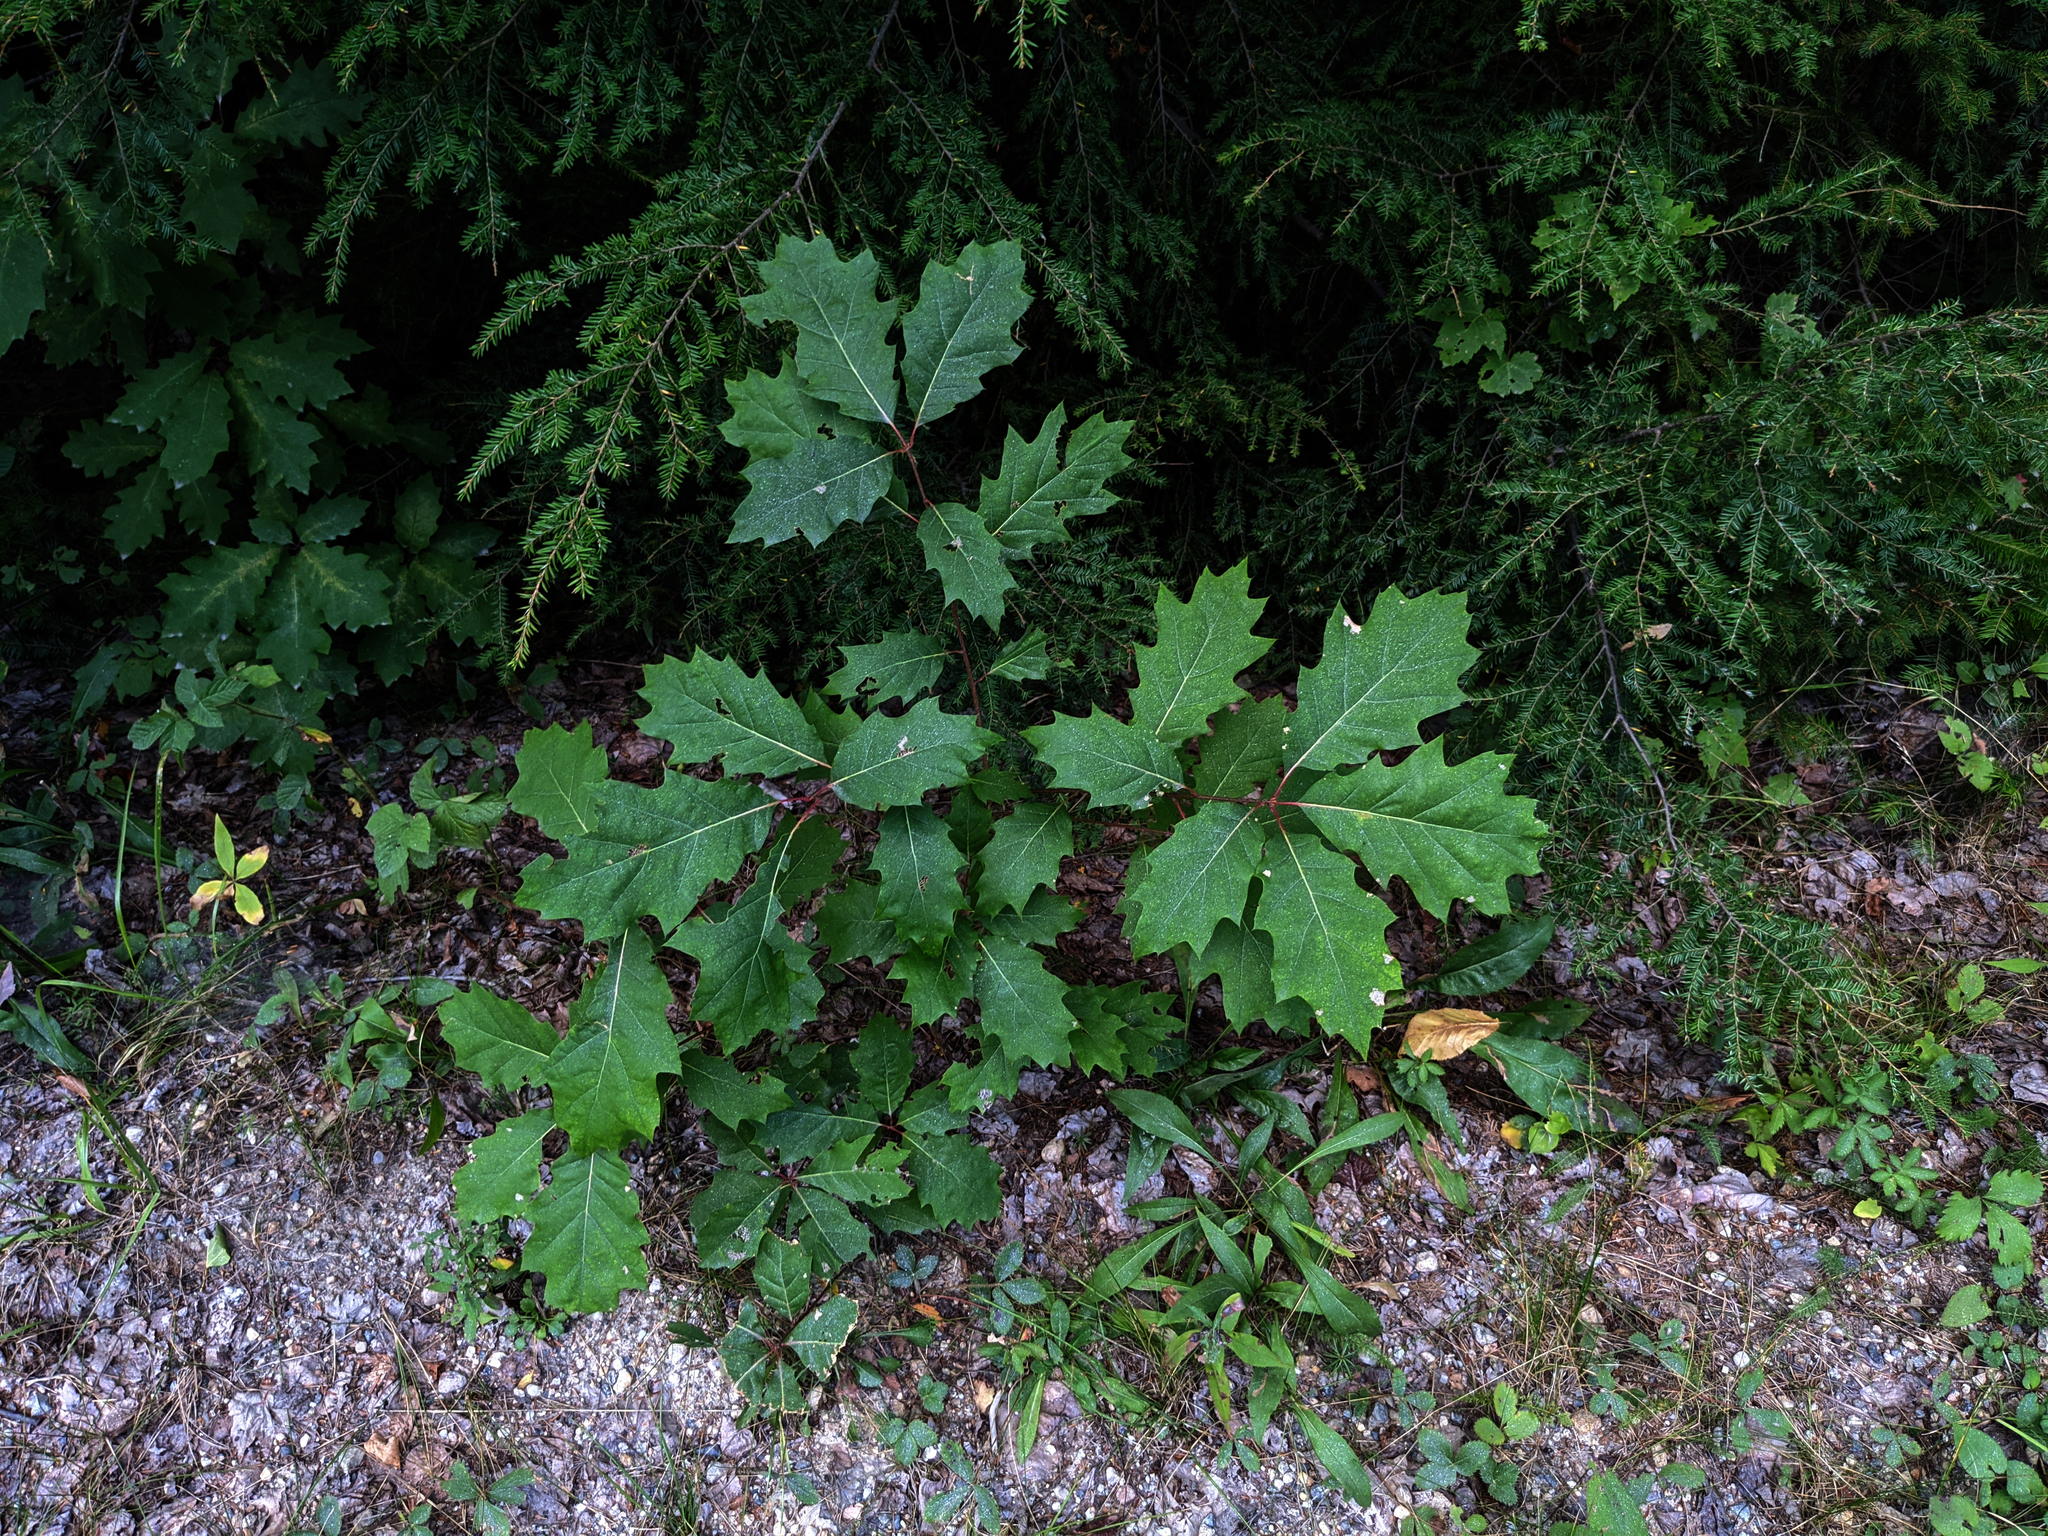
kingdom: Plantae
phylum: Tracheophyta
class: Pinopsida
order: Pinales
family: Pinaceae
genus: Tsuga
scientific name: Tsuga canadensis
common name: Eastern hemlock
